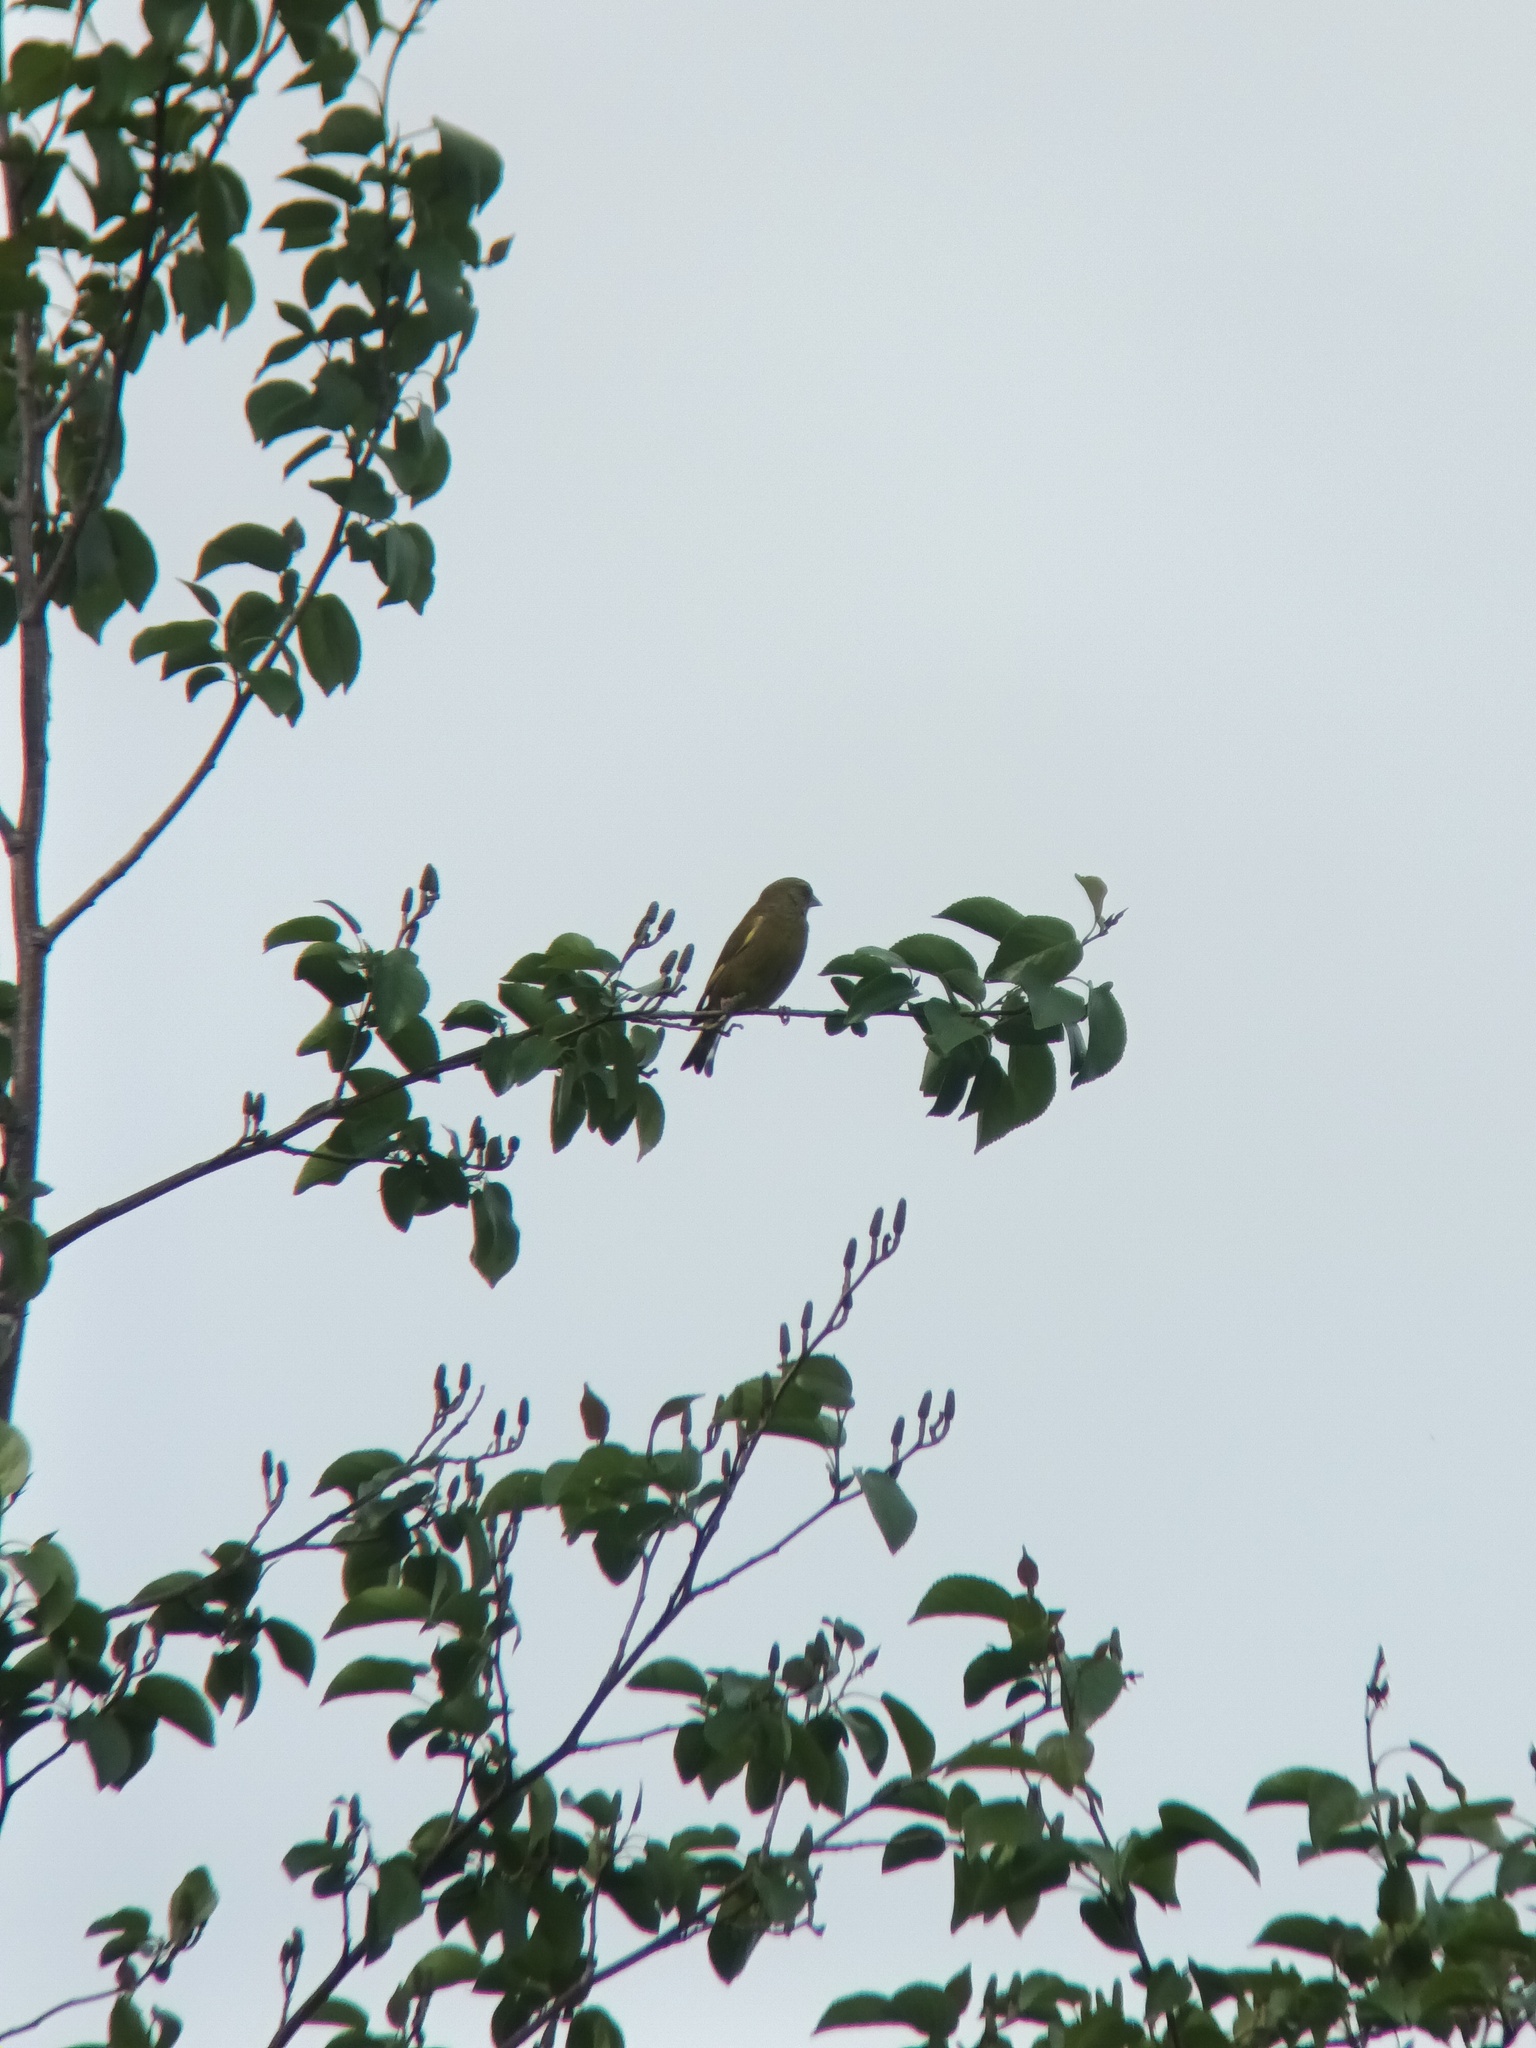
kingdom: Plantae
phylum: Tracheophyta
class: Liliopsida
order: Poales
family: Poaceae
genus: Chloris
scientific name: Chloris chloris
